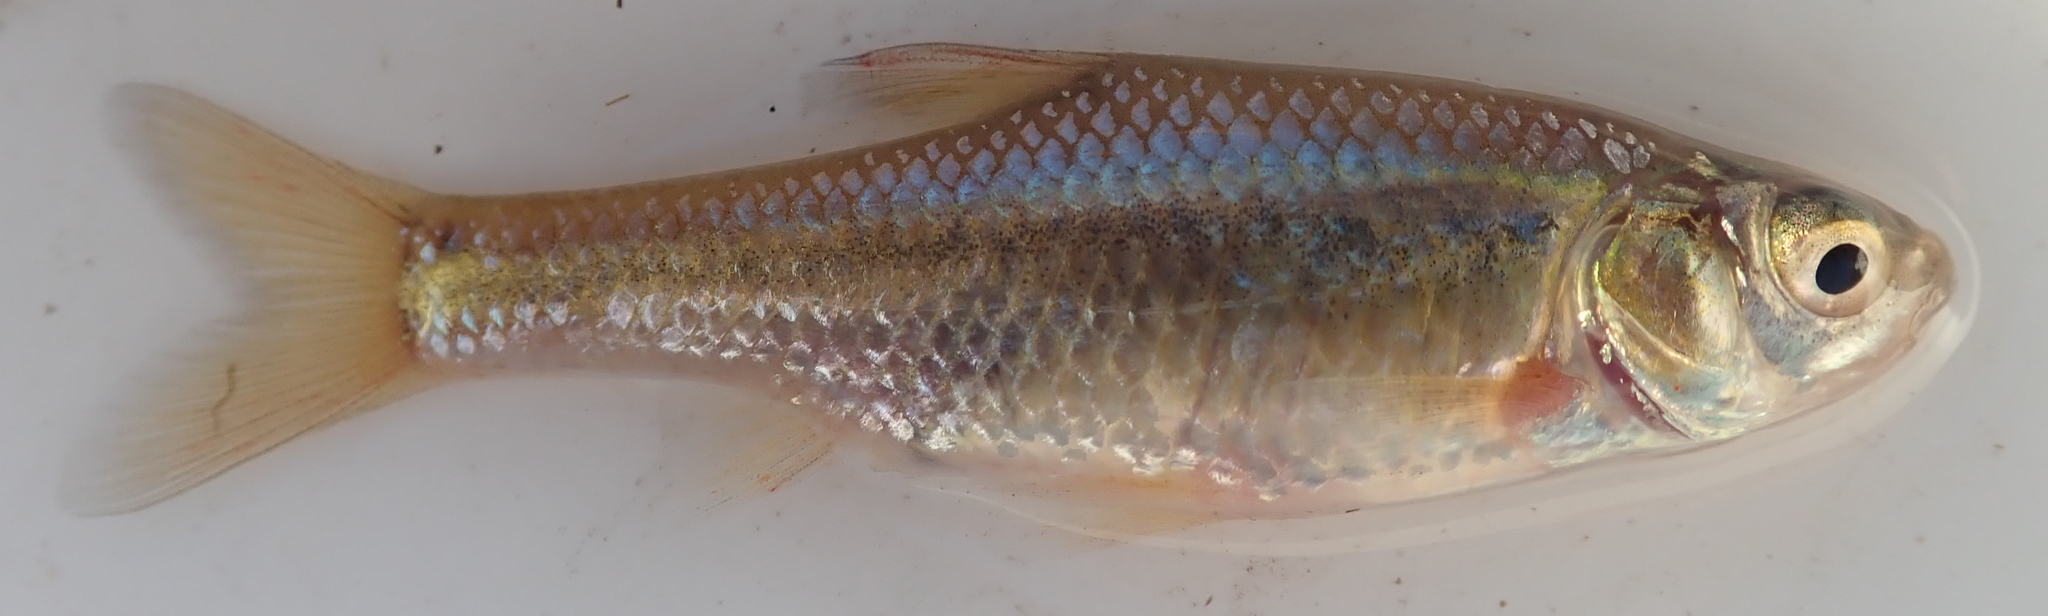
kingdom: Animalia
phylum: Chordata
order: Cypriniformes
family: Cyprinidae
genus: Enteromius
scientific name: Enteromius paludinosus
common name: Straightfin barb
